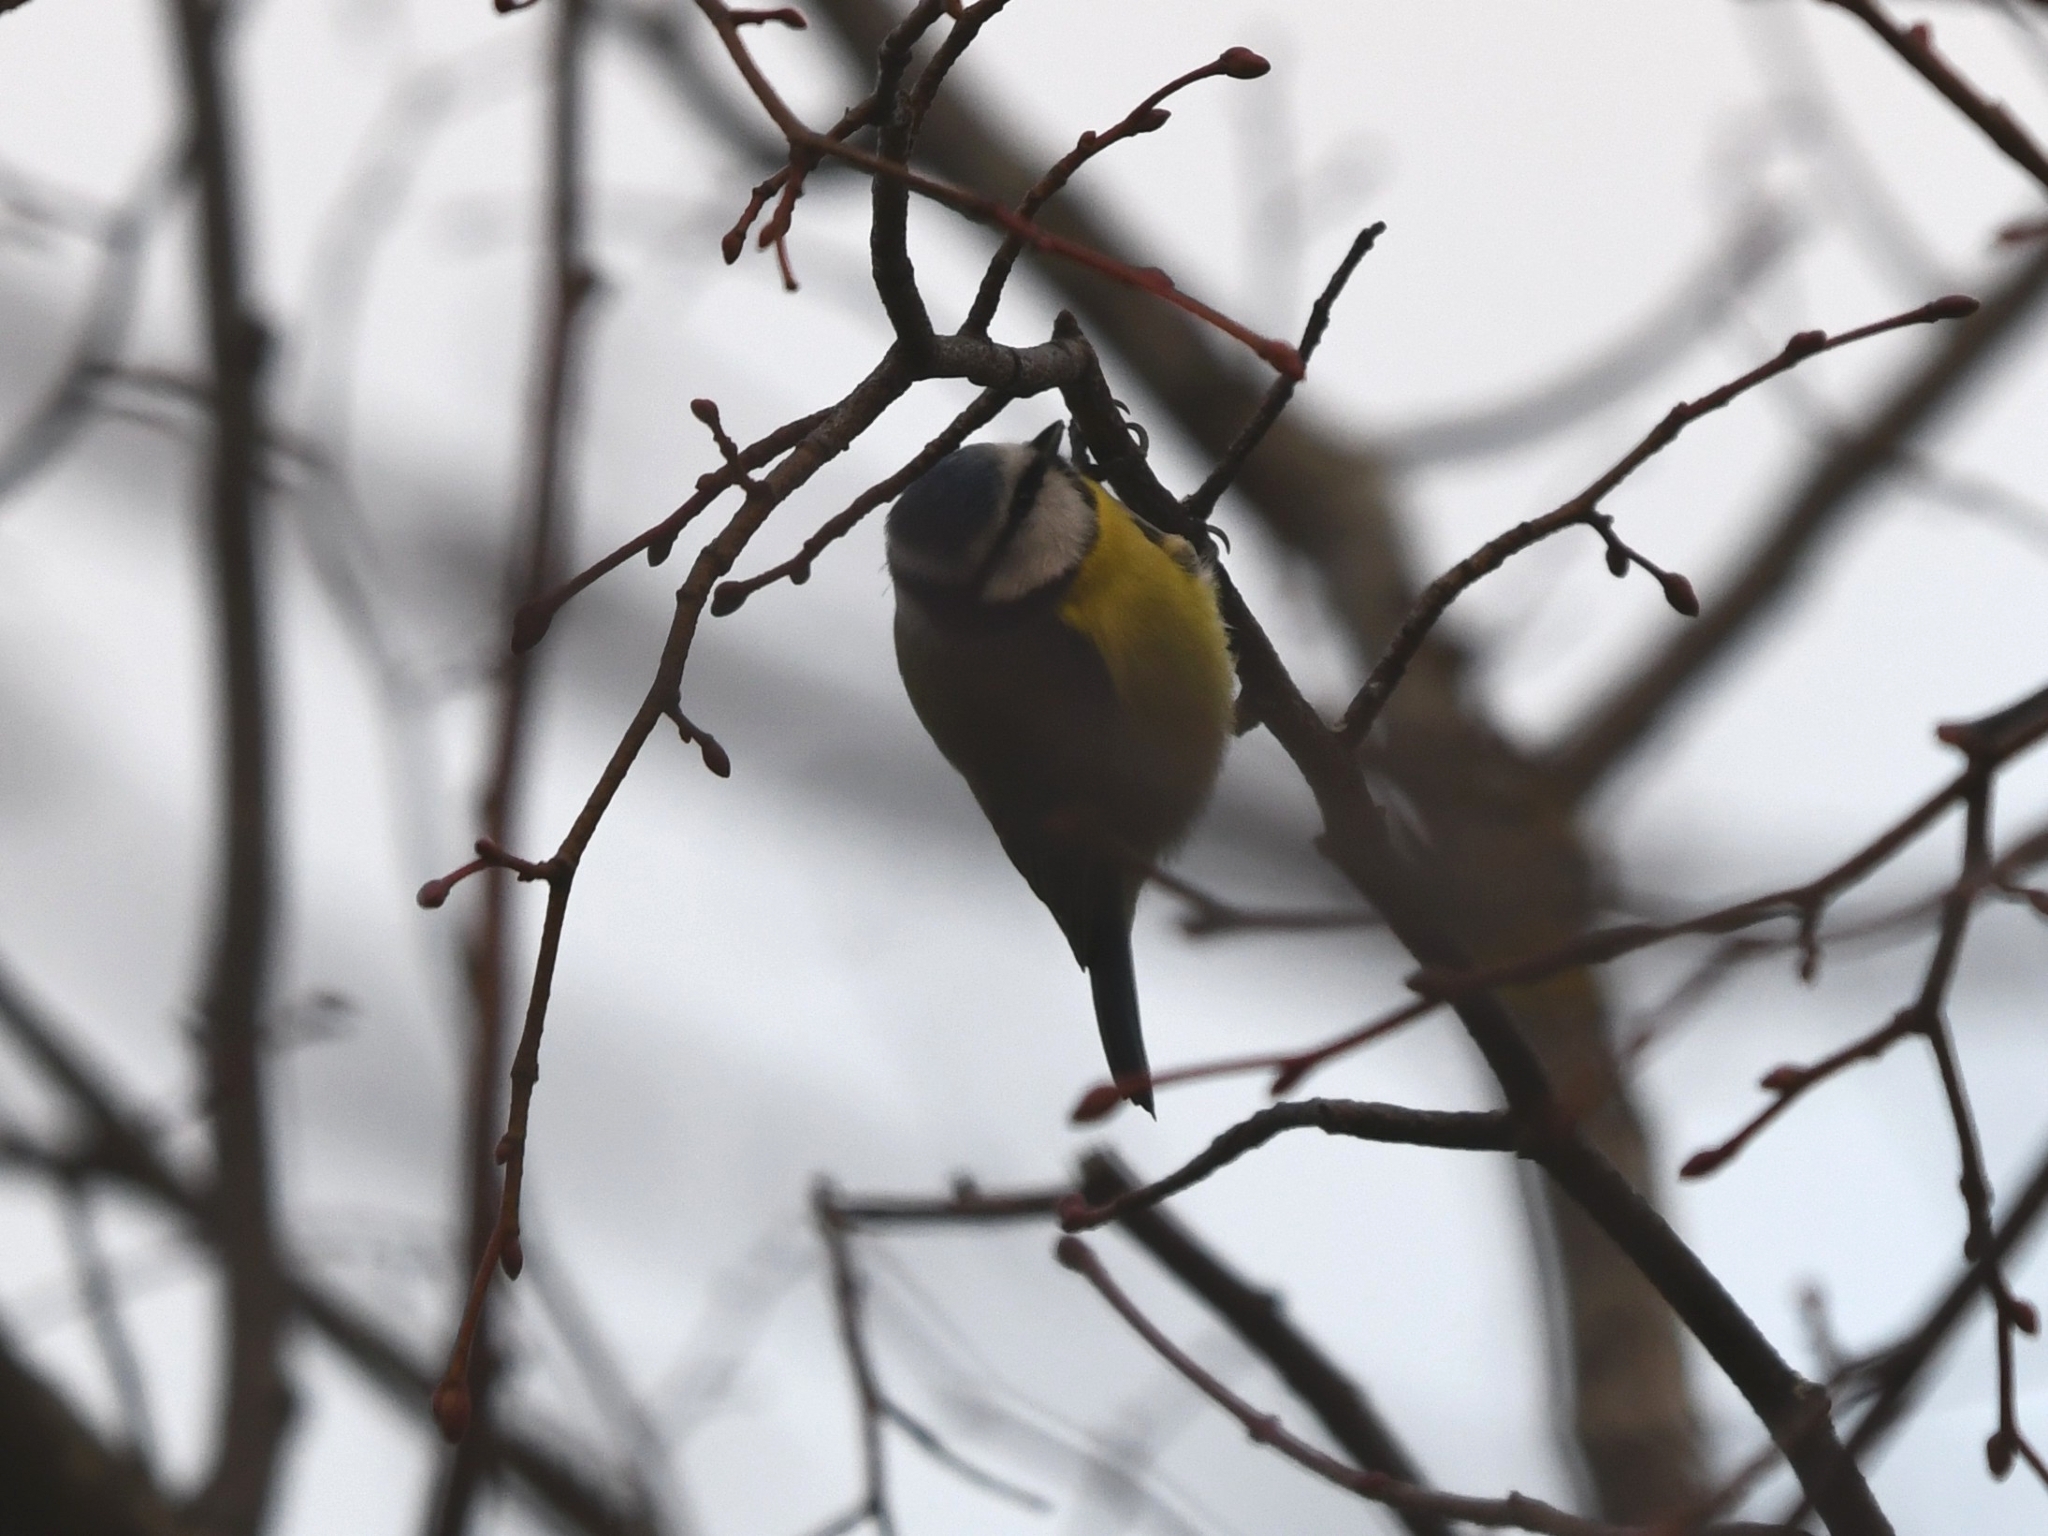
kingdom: Animalia
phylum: Chordata
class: Aves
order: Passeriformes
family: Paridae
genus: Cyanistes
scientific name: Cyanistes caeruleus
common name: Eurasian blue tit
